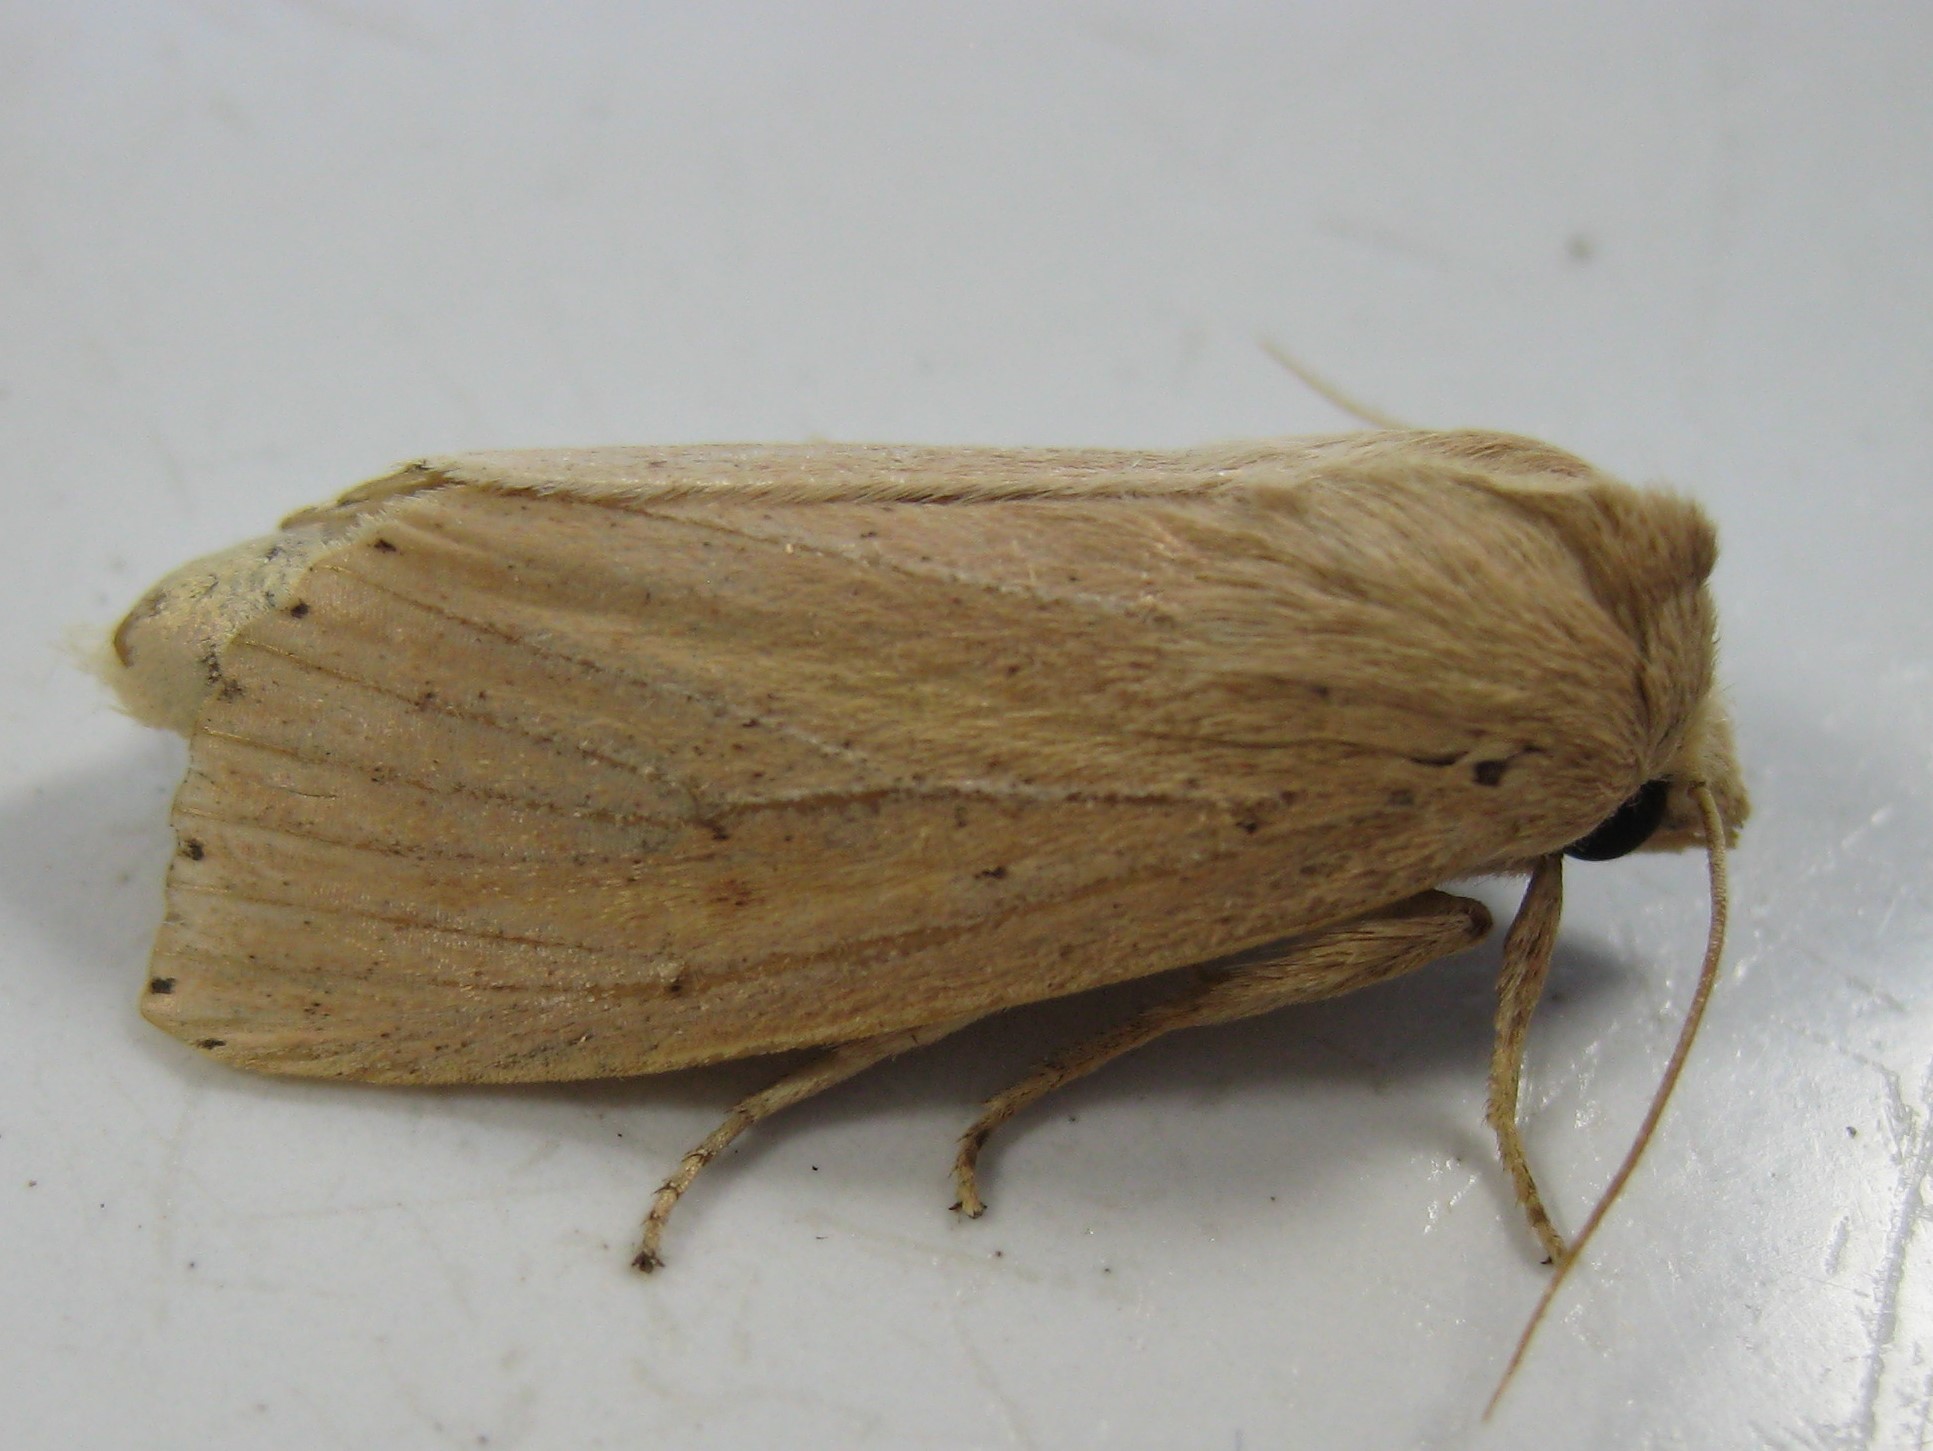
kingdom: Animalia
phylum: Arthropoda
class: Insecta
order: Lepidoptera
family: Noctuidae
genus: Globia
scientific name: Globia oblonga
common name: Oblong sedge borer moth
